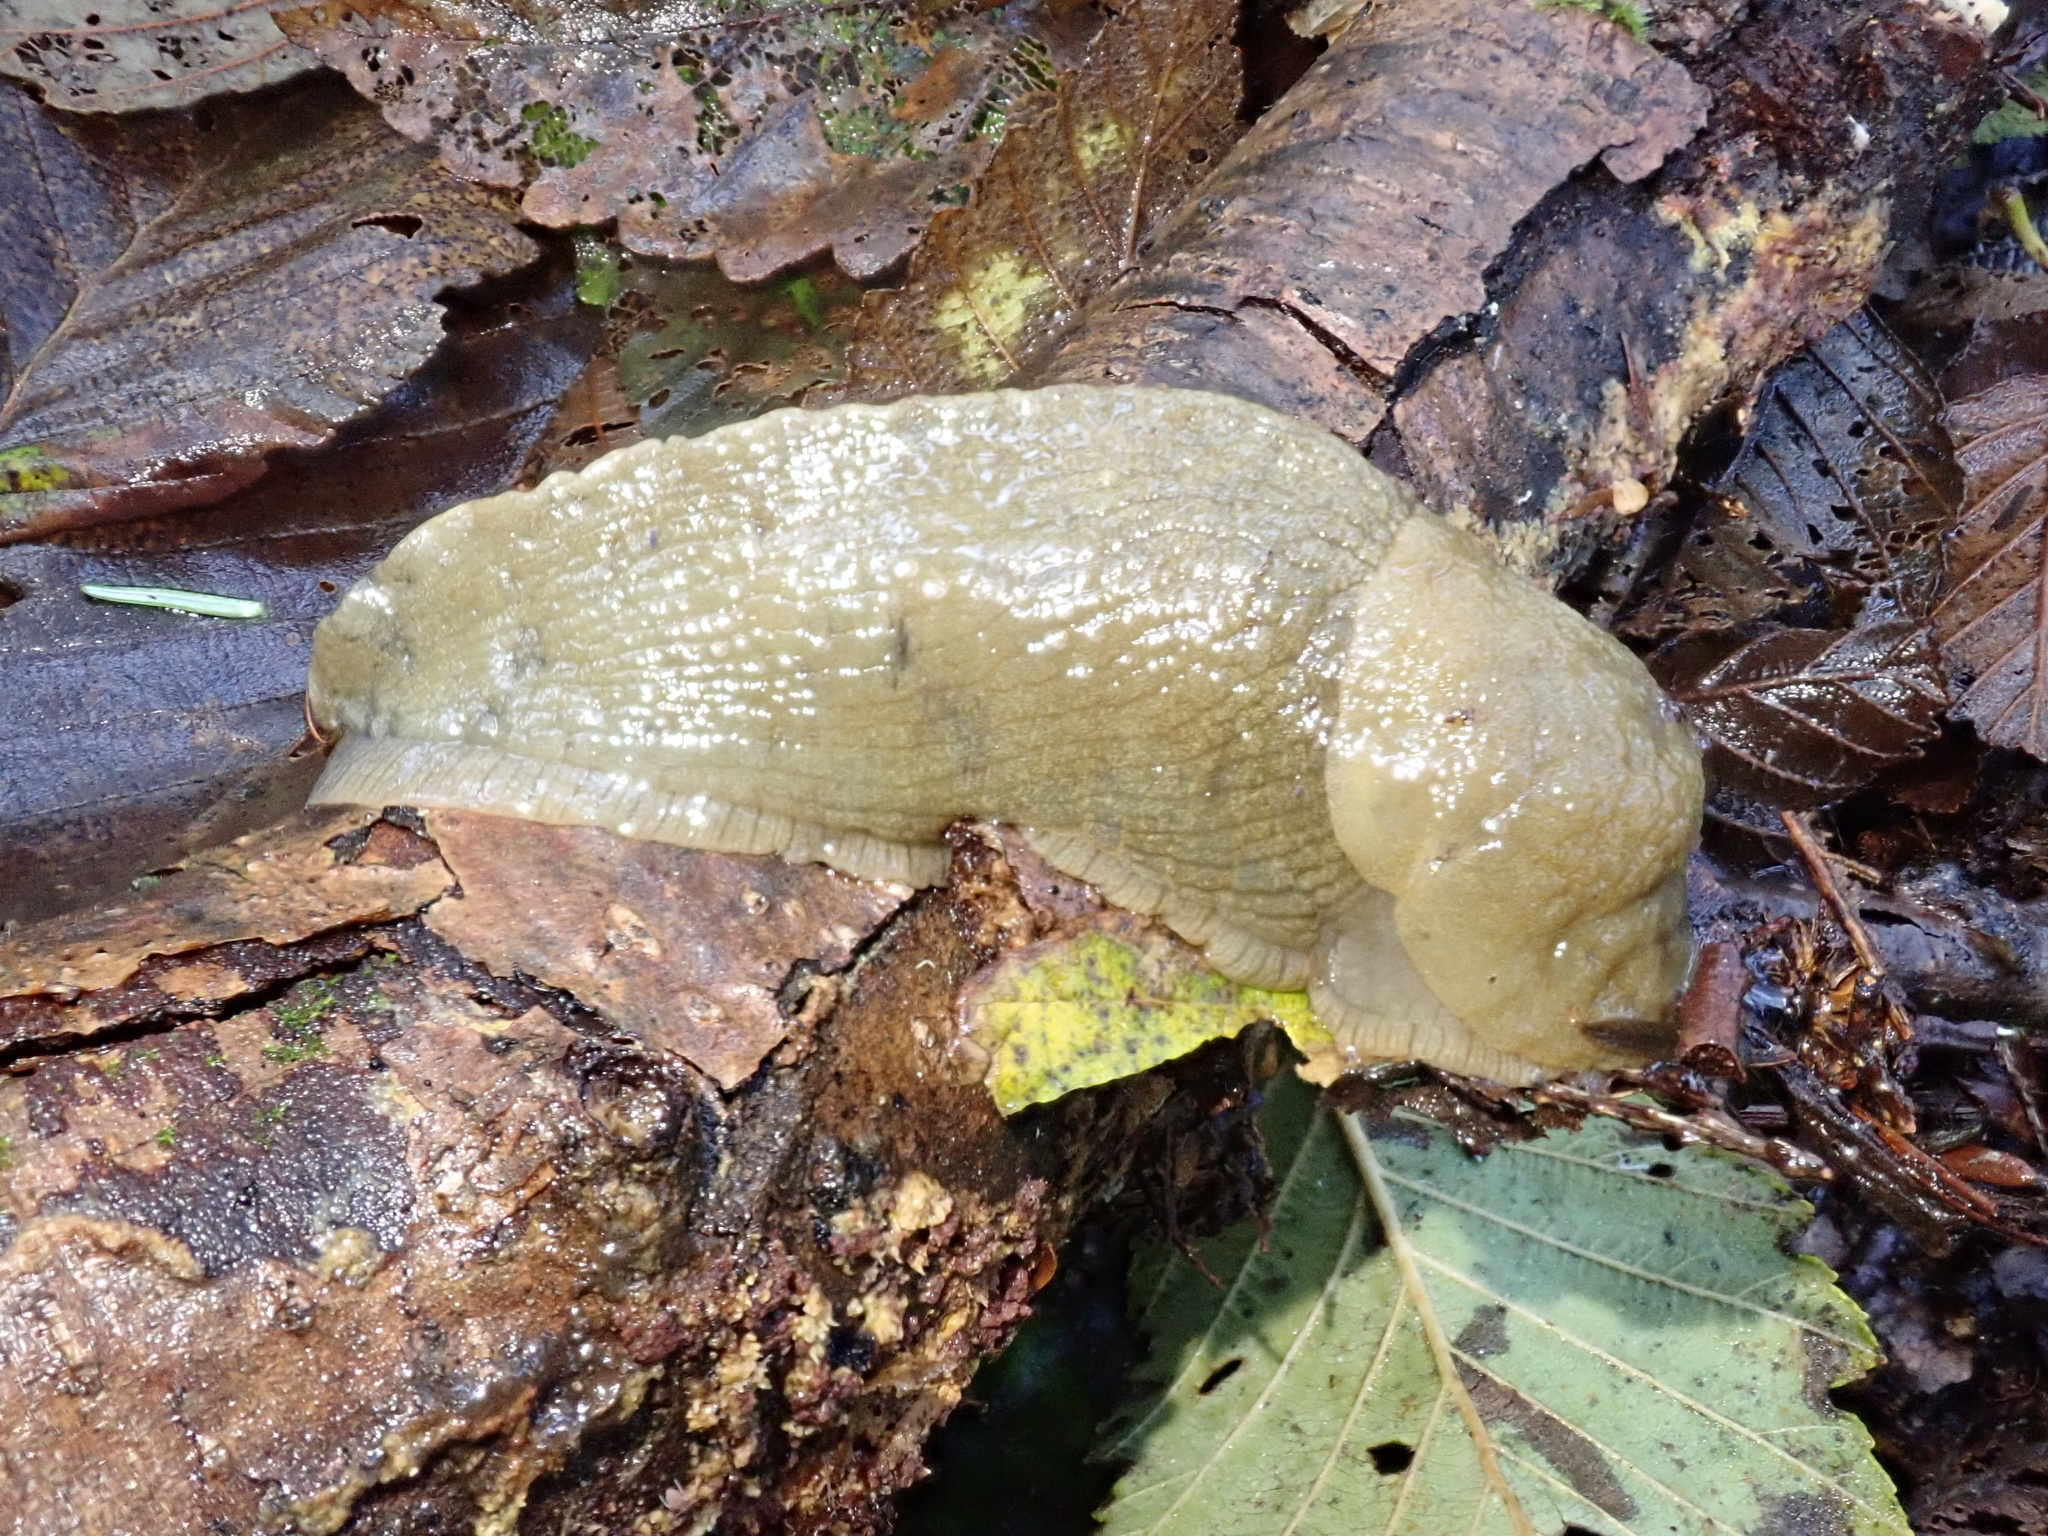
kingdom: Animalia
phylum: Mollusca
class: Gastropoda
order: Stylommatophora
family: Ariolimacidae
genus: Ariolimax
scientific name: Ariolimax columbianus
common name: Pacific banana slug
